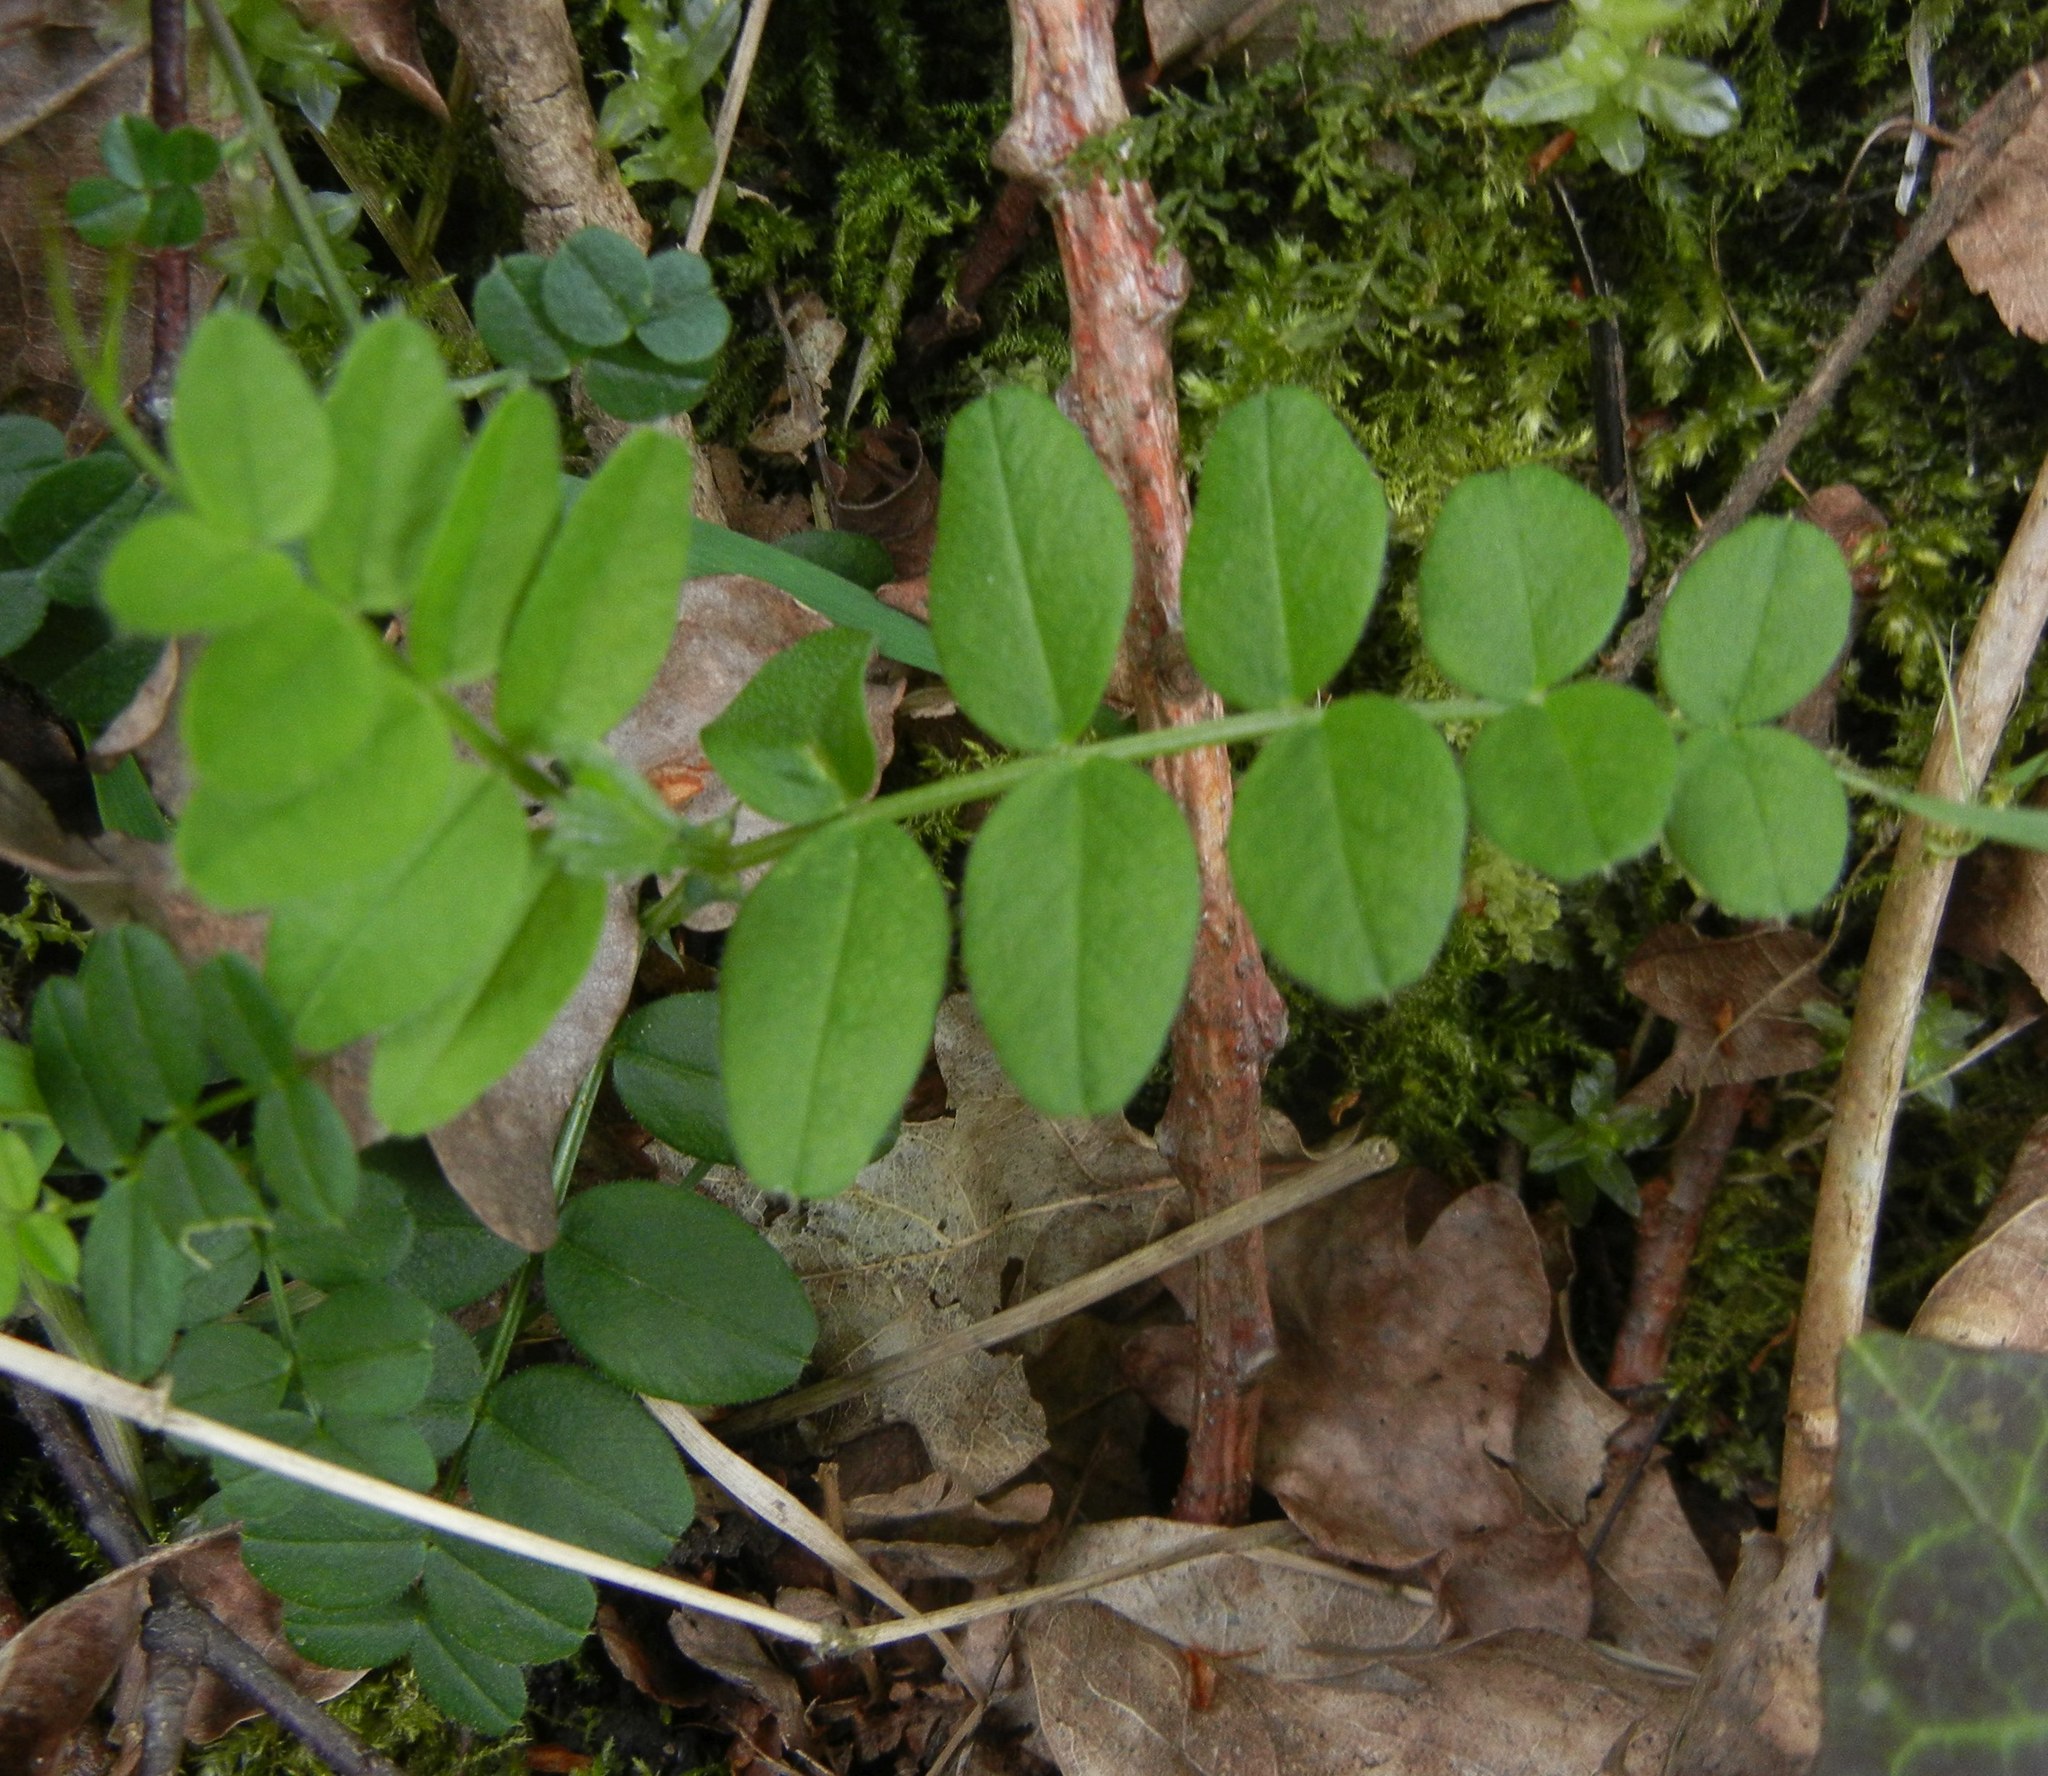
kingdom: Plantae
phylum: Tracheophyta
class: Magnoliopsida
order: Fabales
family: Fabaceae
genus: Vicia
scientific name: Vicia sepium
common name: Bush vetch
